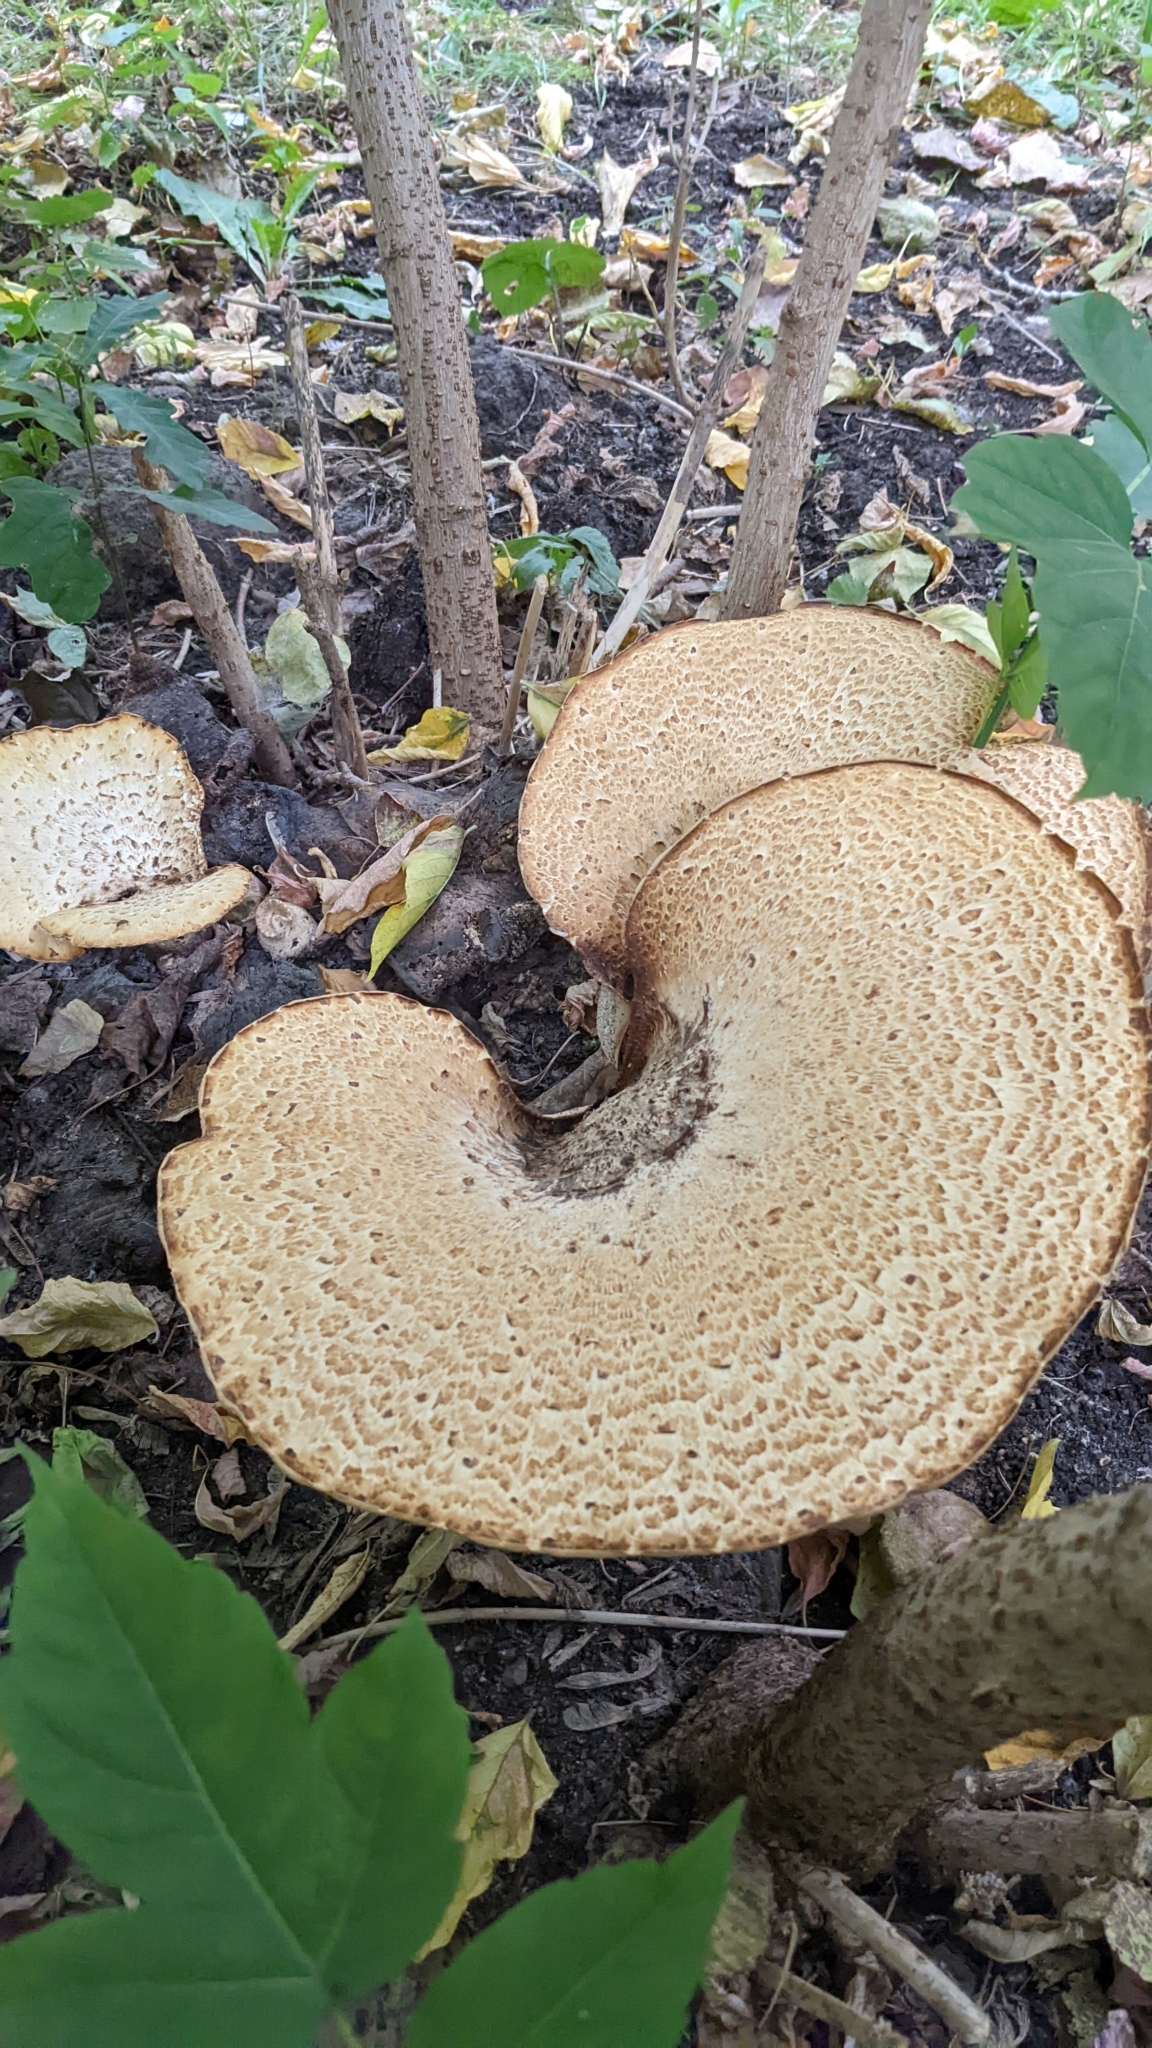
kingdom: Fungi
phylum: Basidiomycota
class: Agaricomycetes
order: Polyporales
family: Polyporaceae
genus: Cerioporus
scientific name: Cerioporus squamosus
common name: Dryad's saddle
